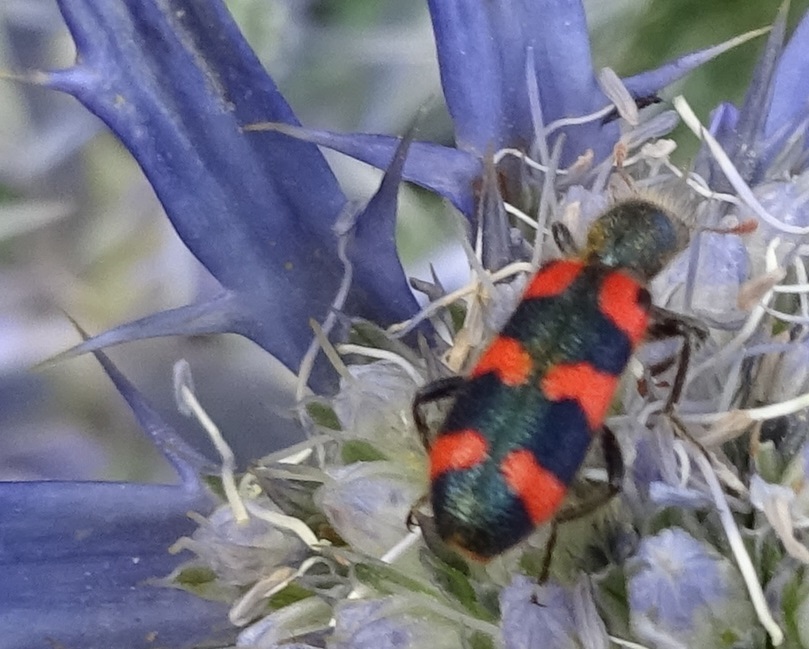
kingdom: Animalia
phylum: Arthropoda
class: Insecta
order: Coleoptera
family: Cleridae
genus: Trichodes
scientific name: Trichodes leucopsideus
